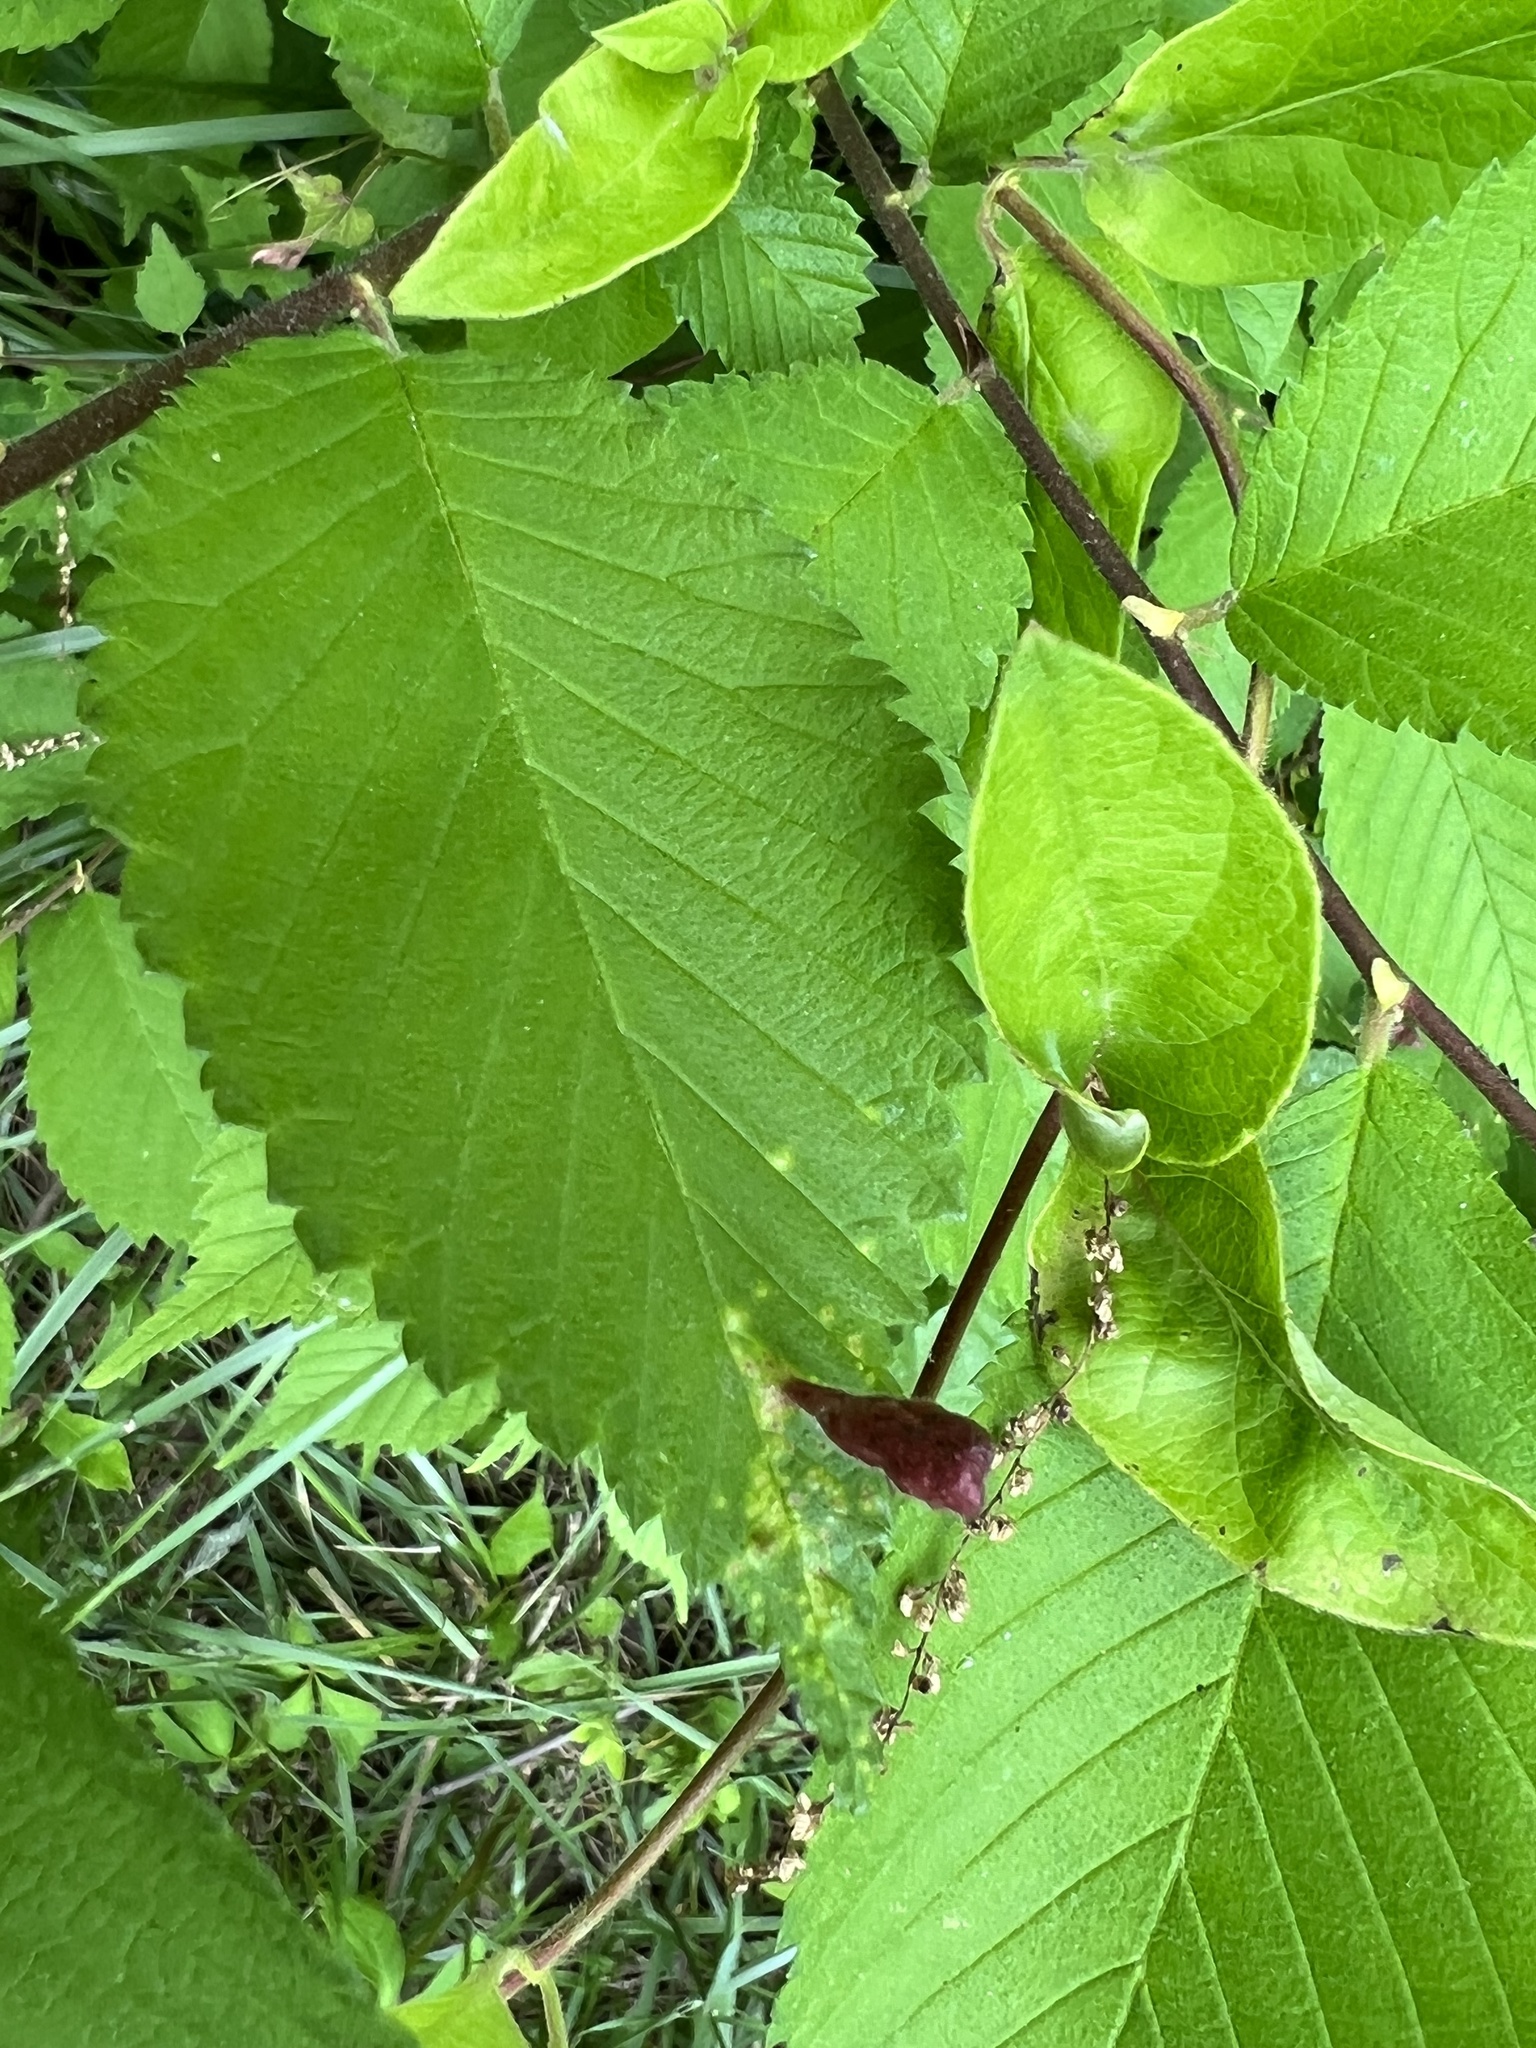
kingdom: Animalia
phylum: Arthropoda
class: Insecta
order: Hemiptera
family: Aphididae
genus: Tetraneura
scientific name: Tetraneura nigriabdominalis
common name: Aphid
